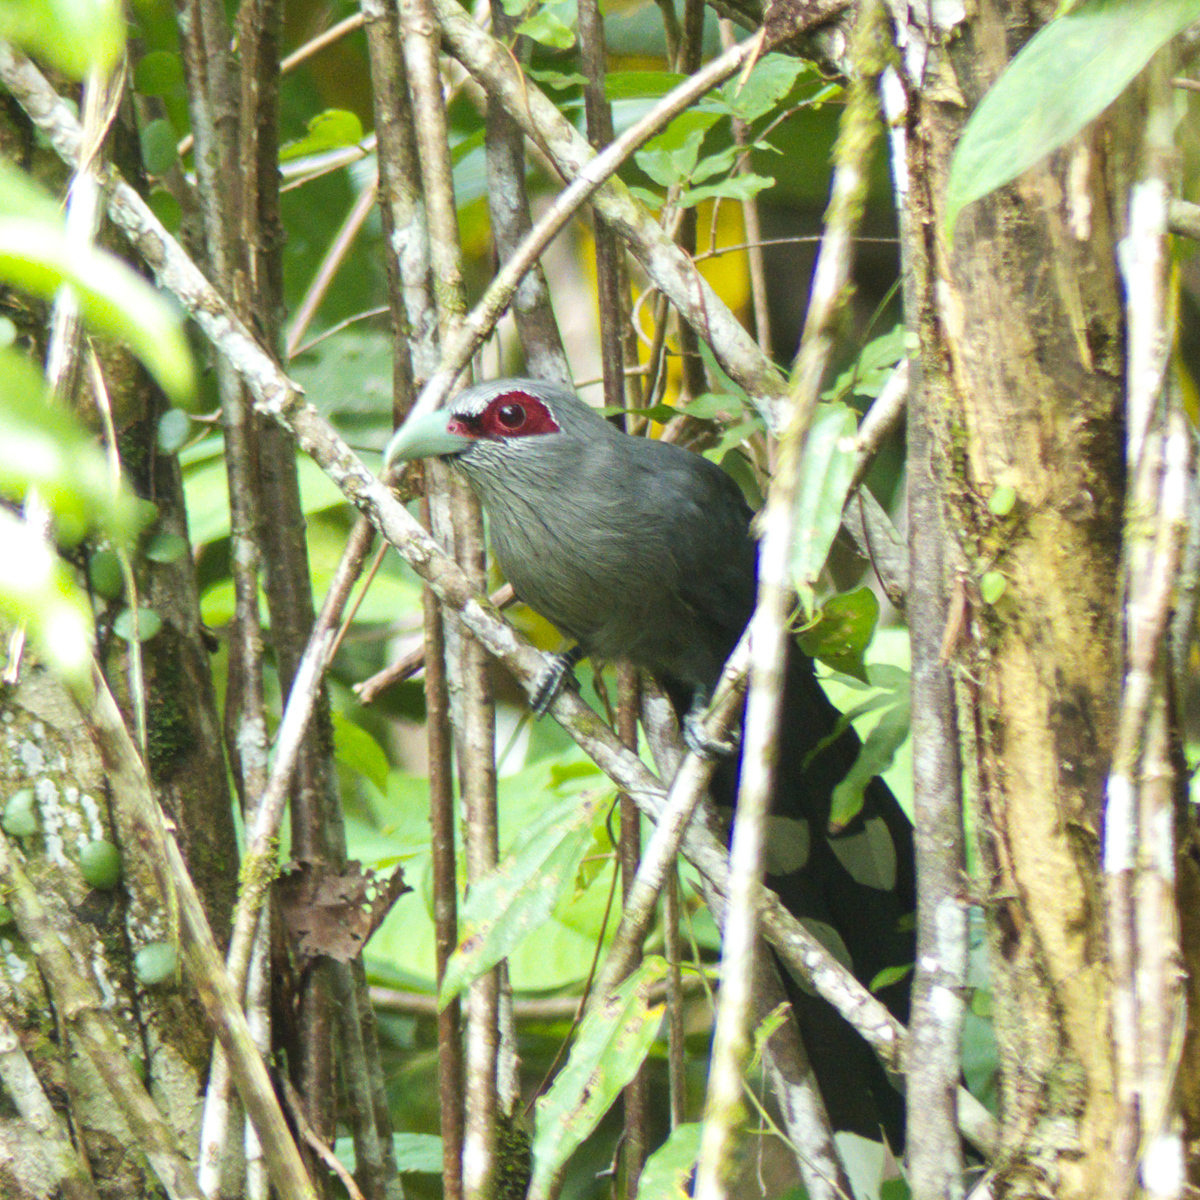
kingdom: Animalia
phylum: Chordata
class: Aves
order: Cuculiformes
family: Cuculidae
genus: Rhopodytes
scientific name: Rhopodytes tristis
